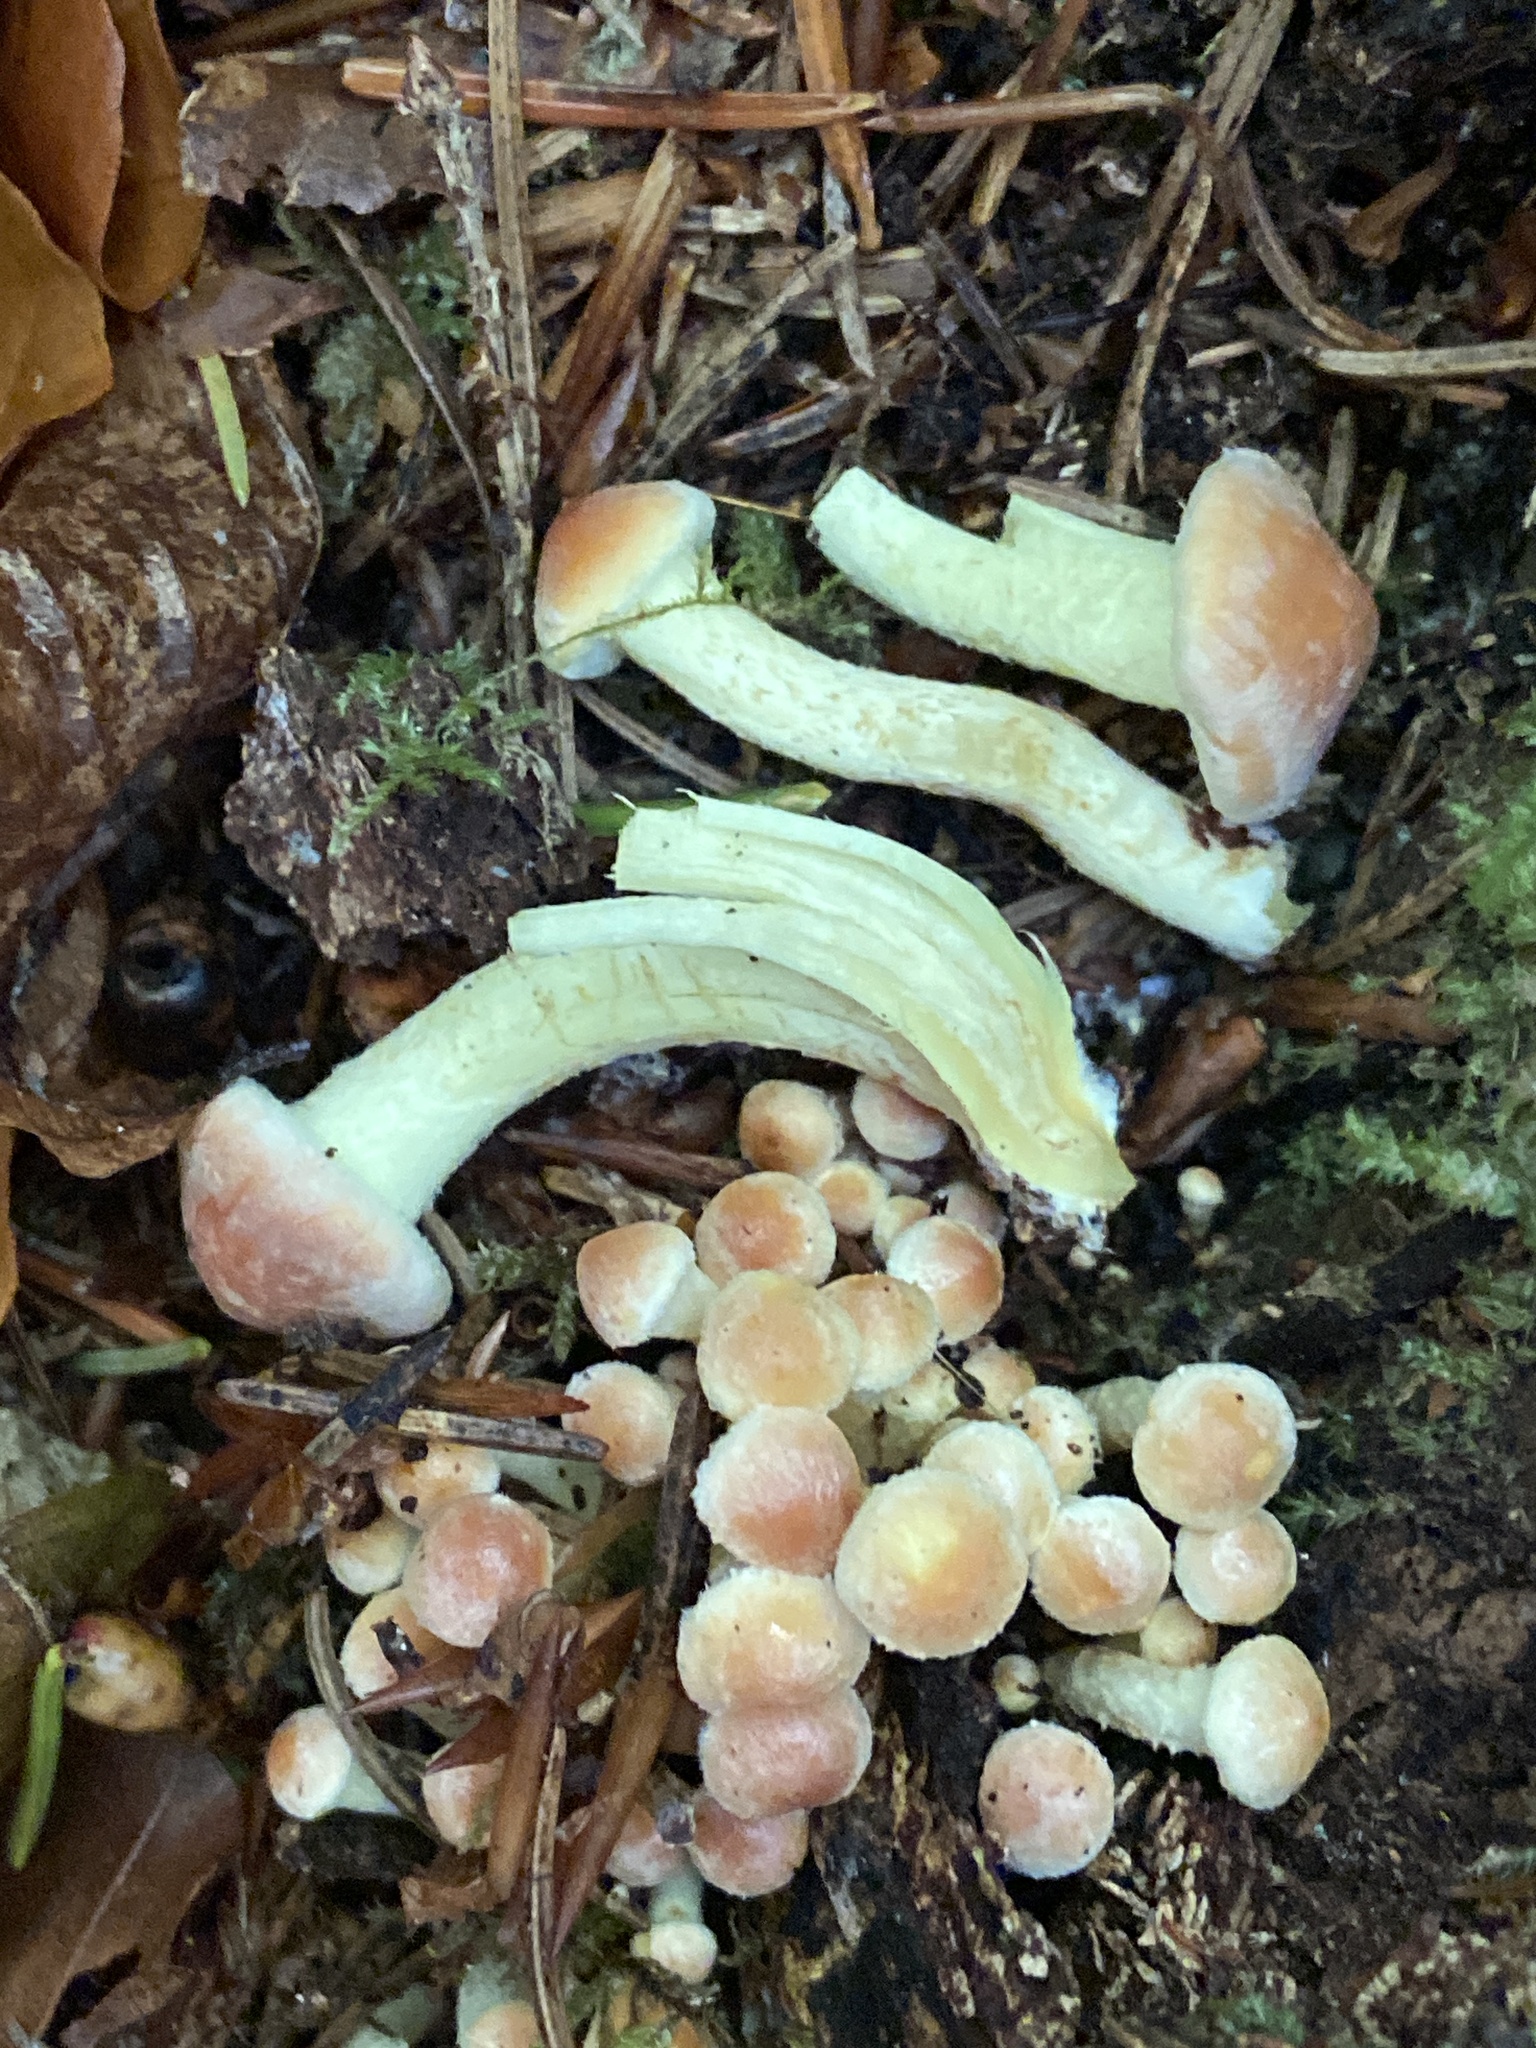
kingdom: Fungi
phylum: Basidiomycota
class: Agaricomycetes
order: Agaricales
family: Strophariaceae
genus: Hypholoma
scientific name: Hypholoma fasciculare
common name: Sulphur tuft
